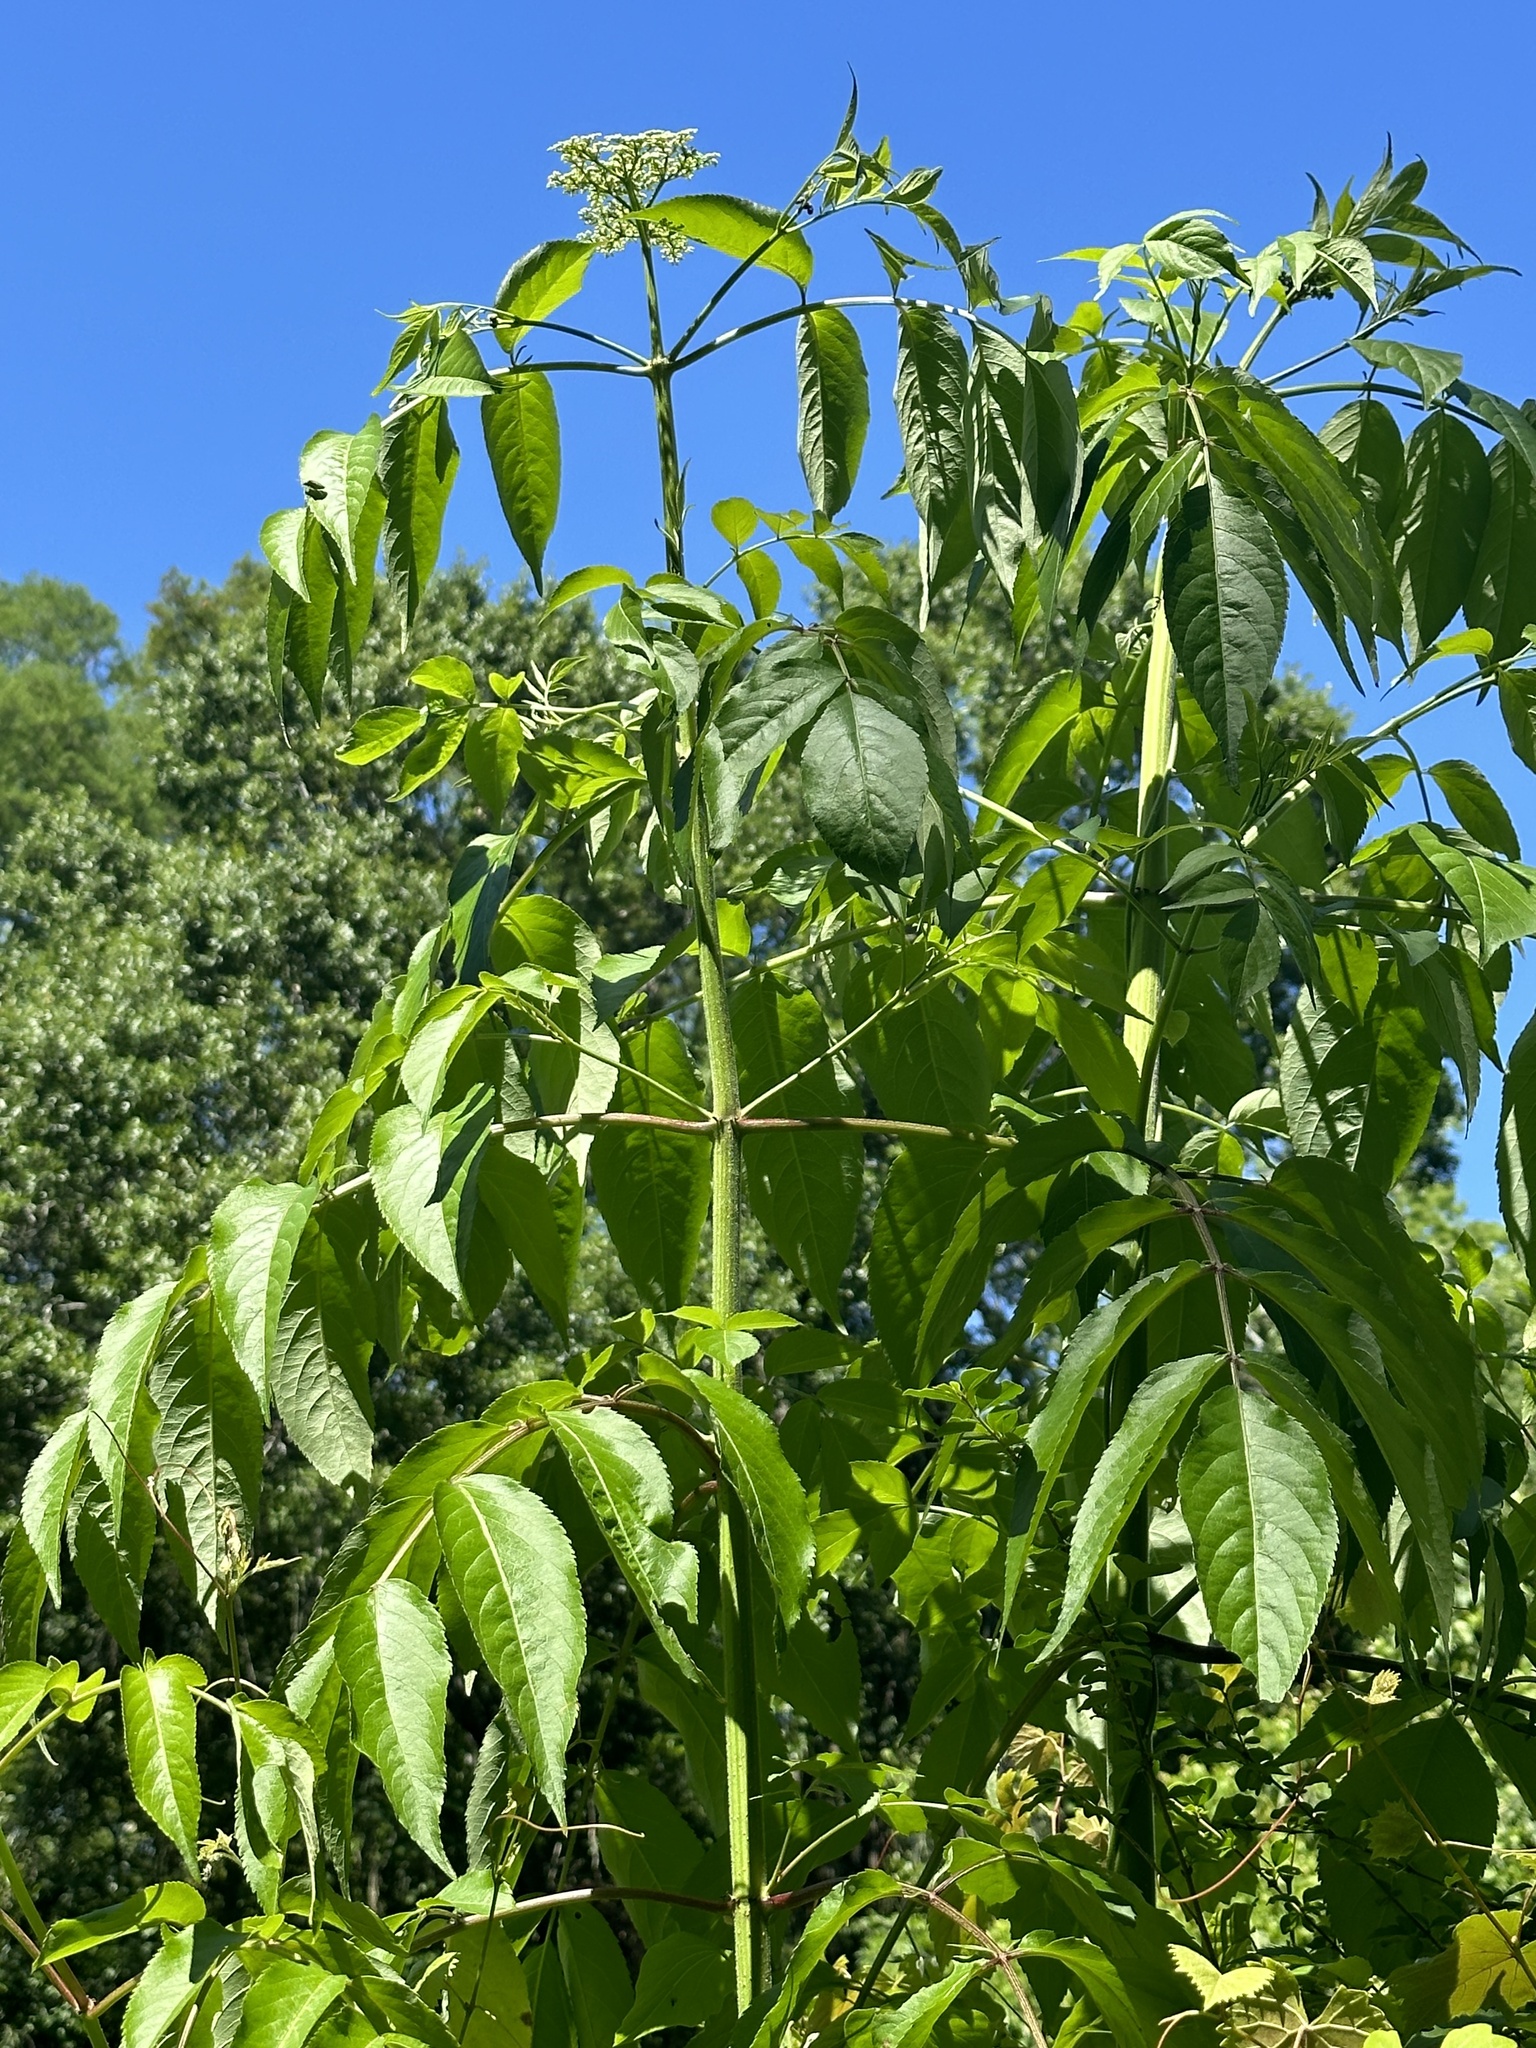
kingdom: Plantae
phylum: Tracheophyta
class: Magnoliopsida
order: Dipsacales
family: Viburnaceae
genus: Sambucus
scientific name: Sambucus canadensis
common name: American elder
